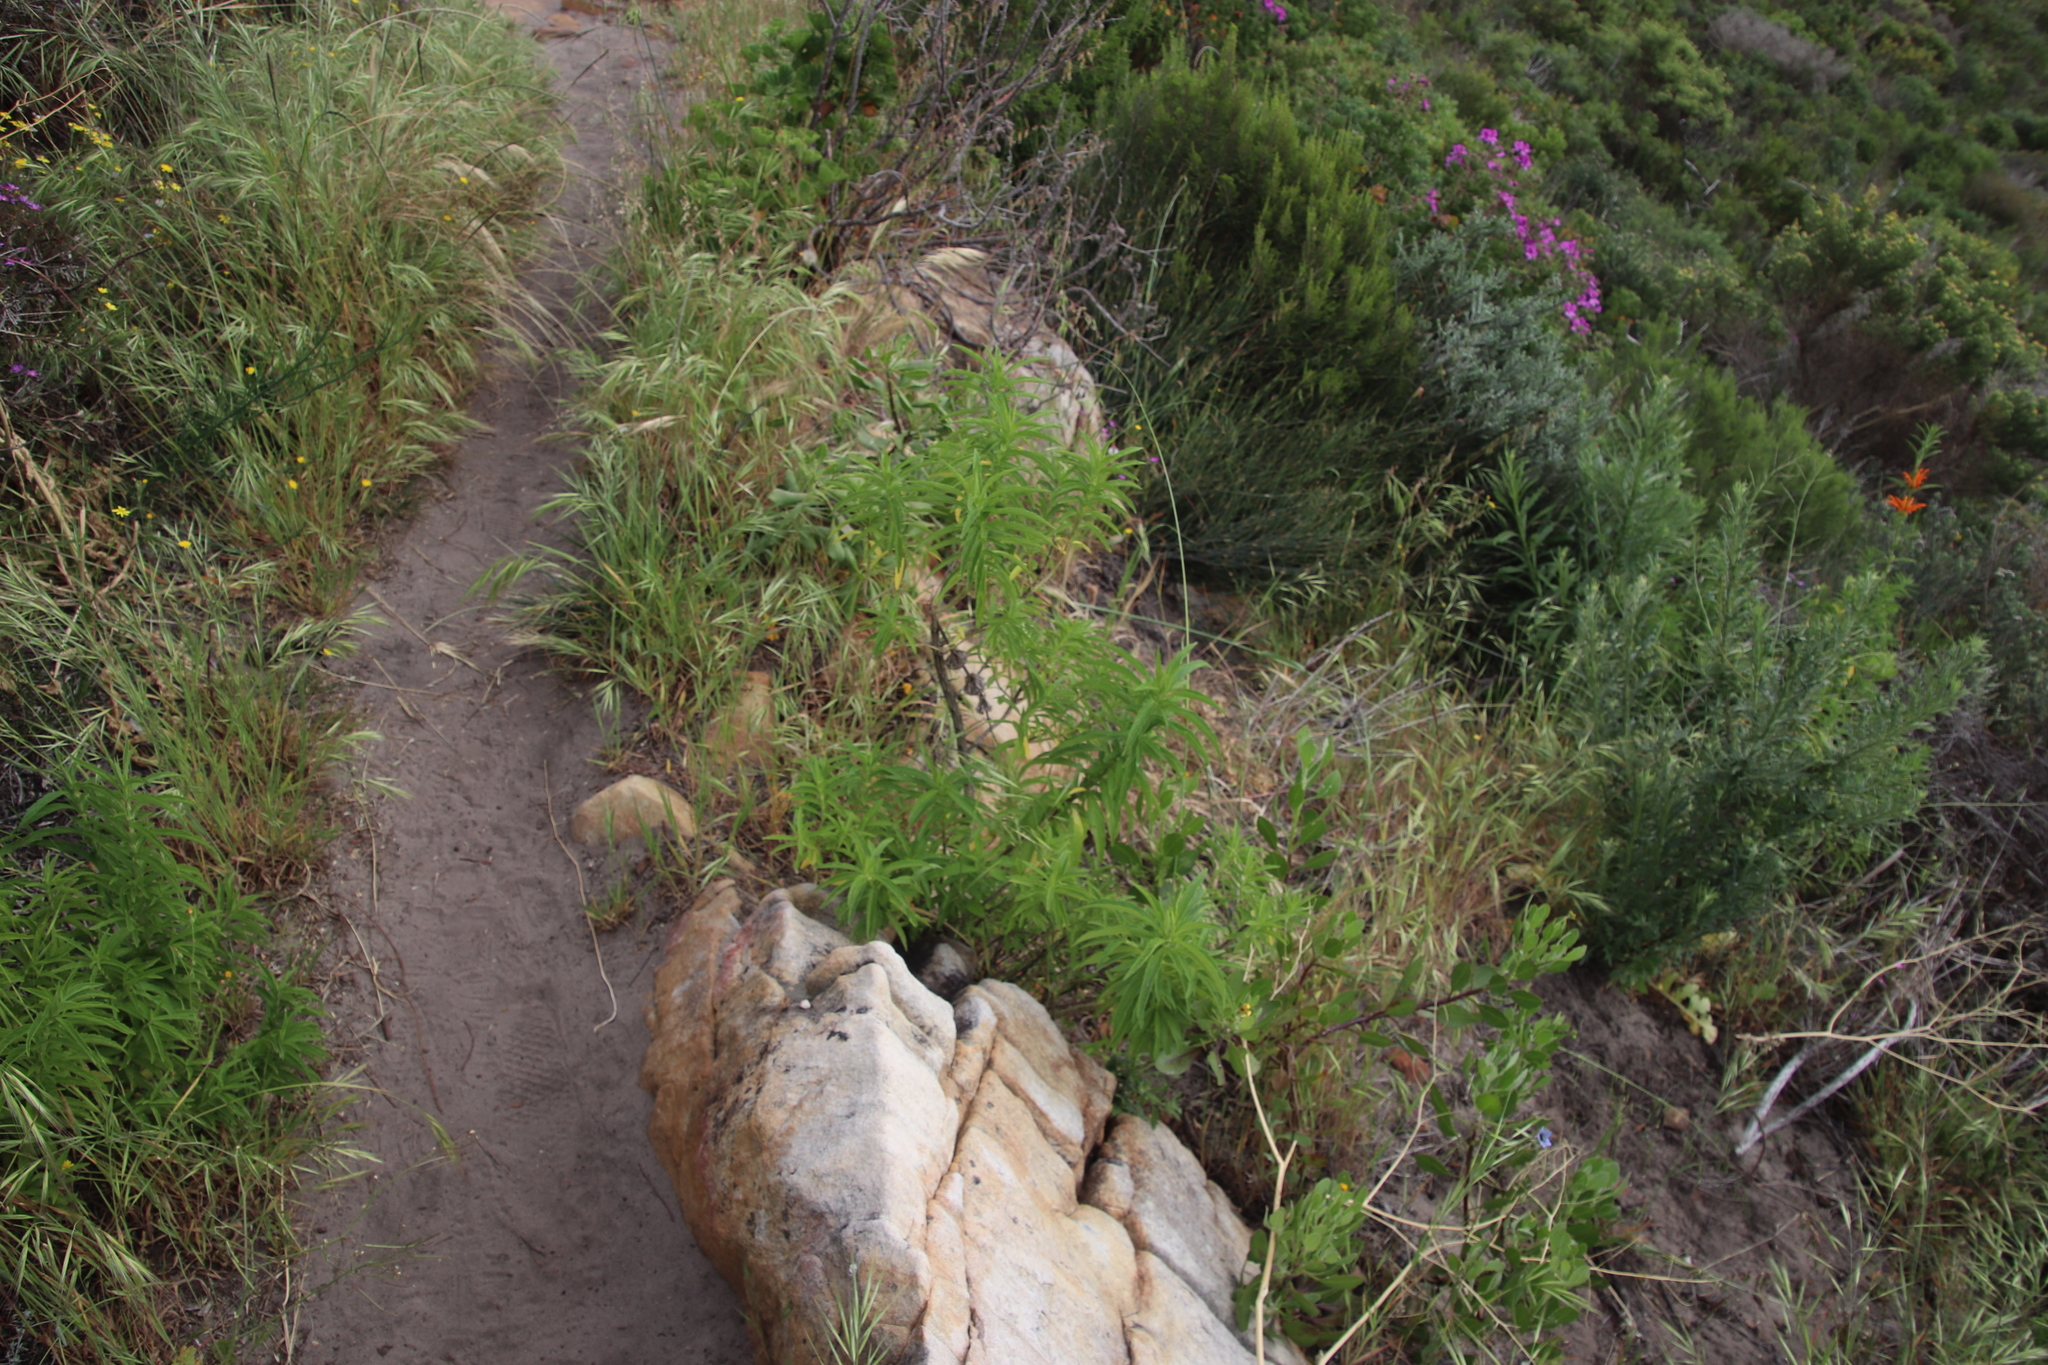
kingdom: Plantae
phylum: Tracheophyta
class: Magnoliopsida
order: Lamiales
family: Lamiaceae
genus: Leonotis
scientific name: Leonotis leonurus
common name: Lion's ear
